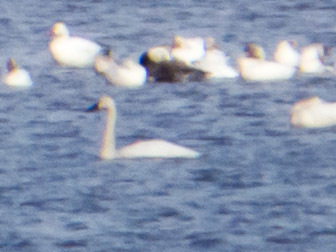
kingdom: Animalia
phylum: Chordata
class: Aves
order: Anseriformes
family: Anatidae
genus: Cygnus
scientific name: Cygnus columbianus
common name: Tundra swan
